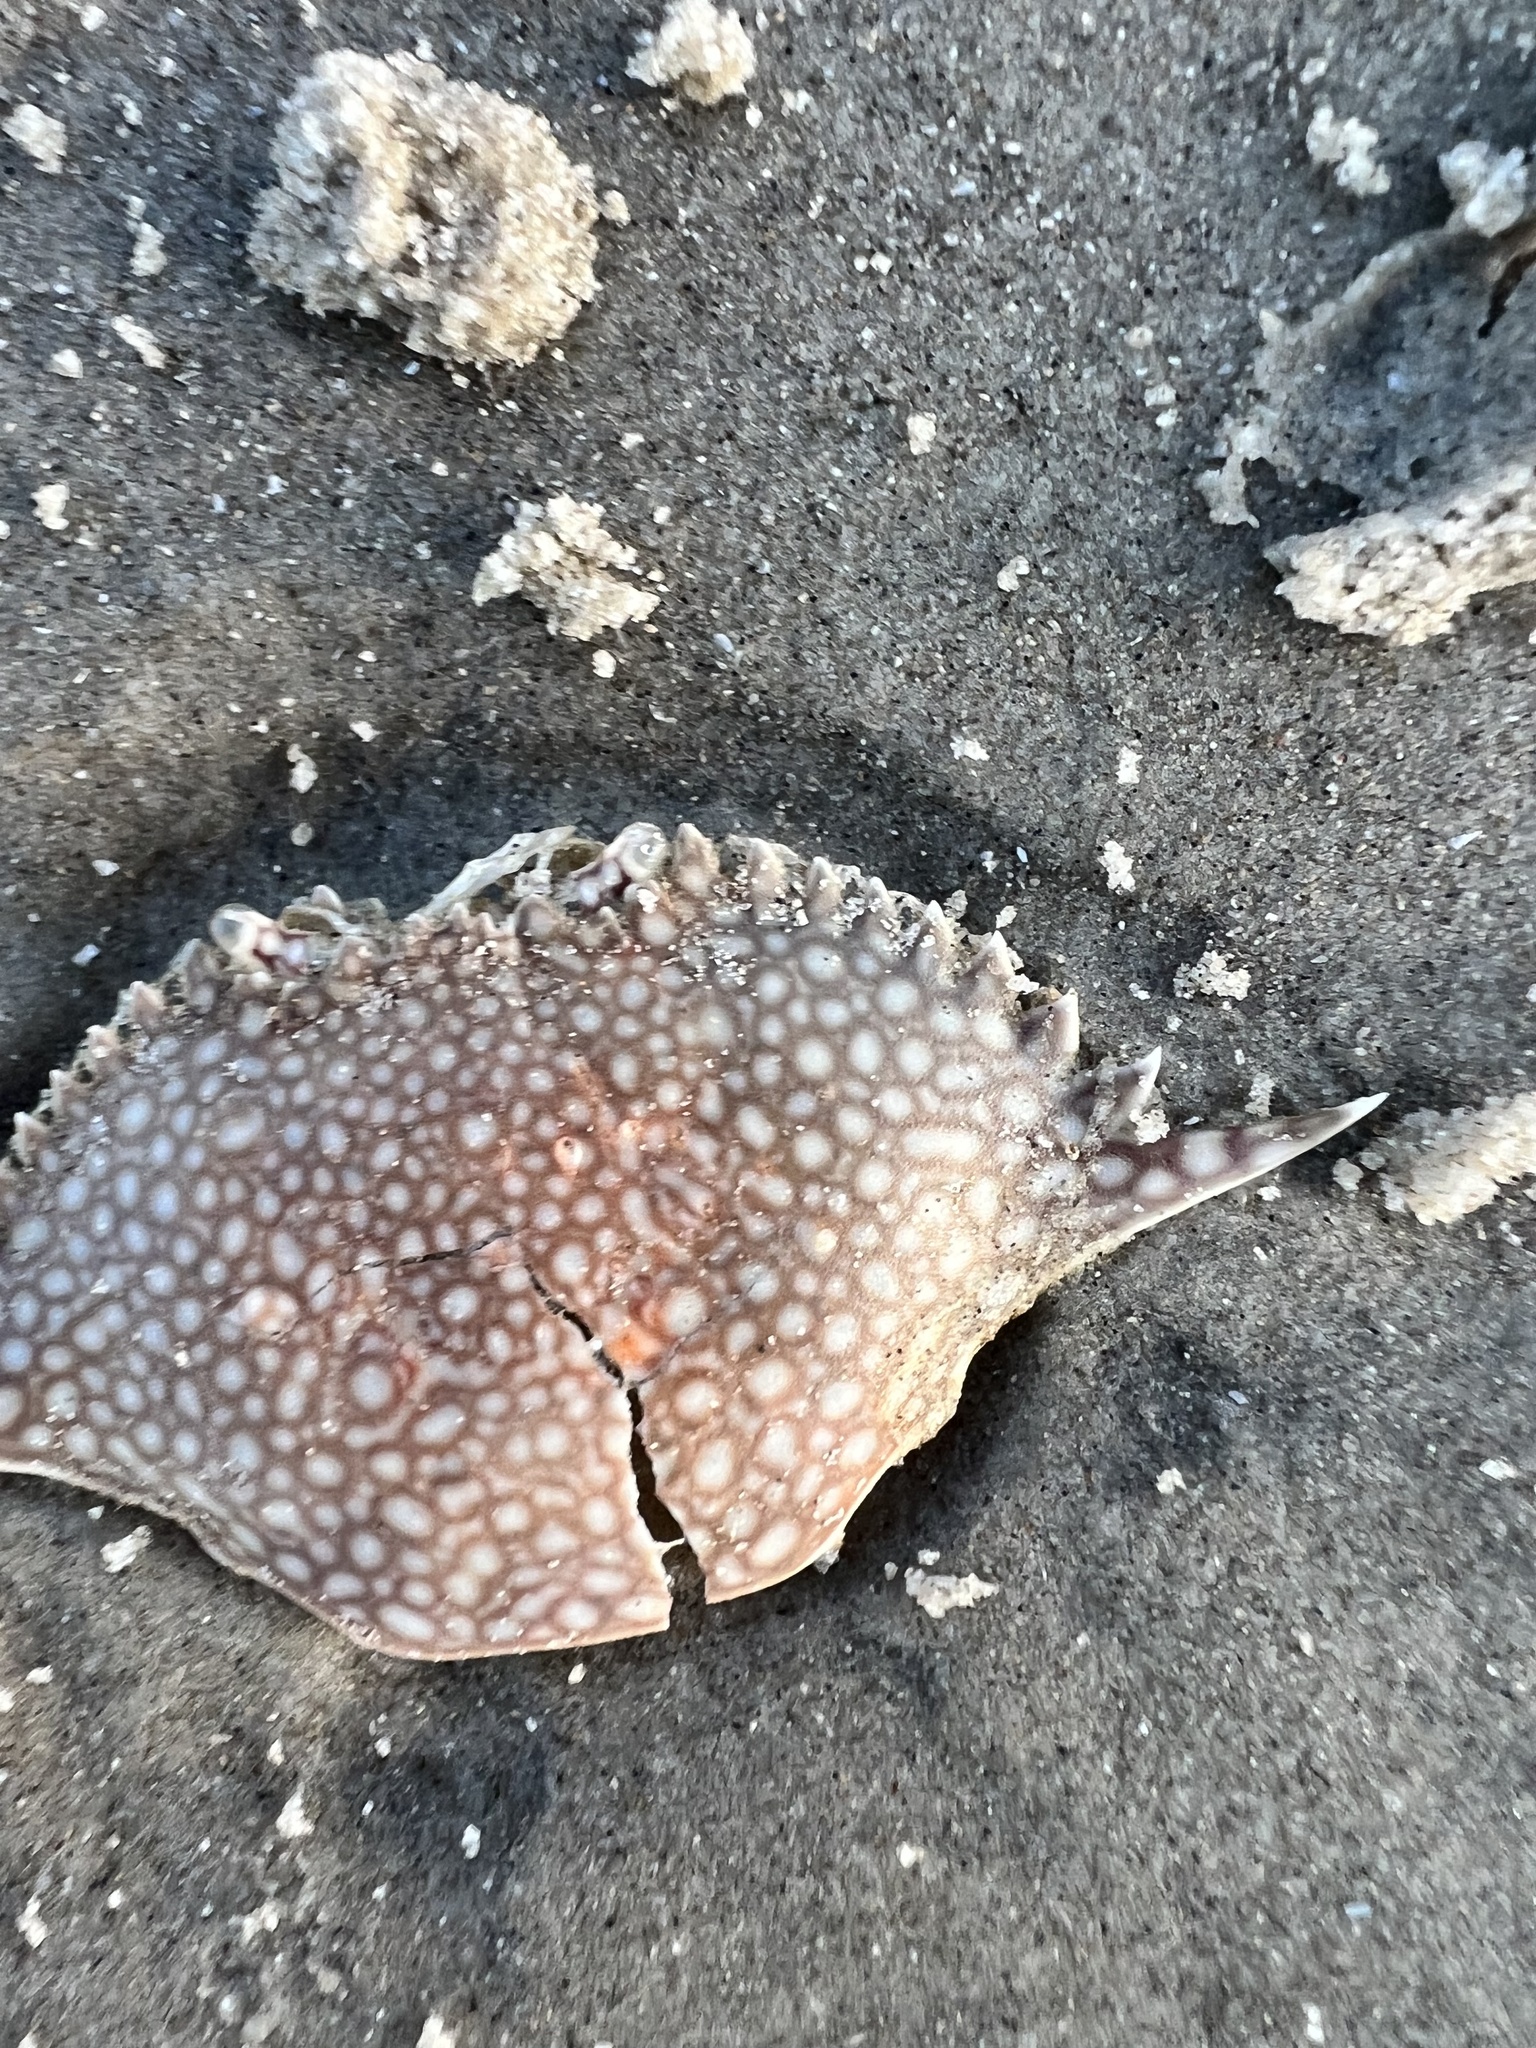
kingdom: Animalia
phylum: Arthropoda
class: Malacostraca
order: Decapoda
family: Portunidae
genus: Arenaeus
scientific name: Arenaeus cribrarius
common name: Speckled crab
